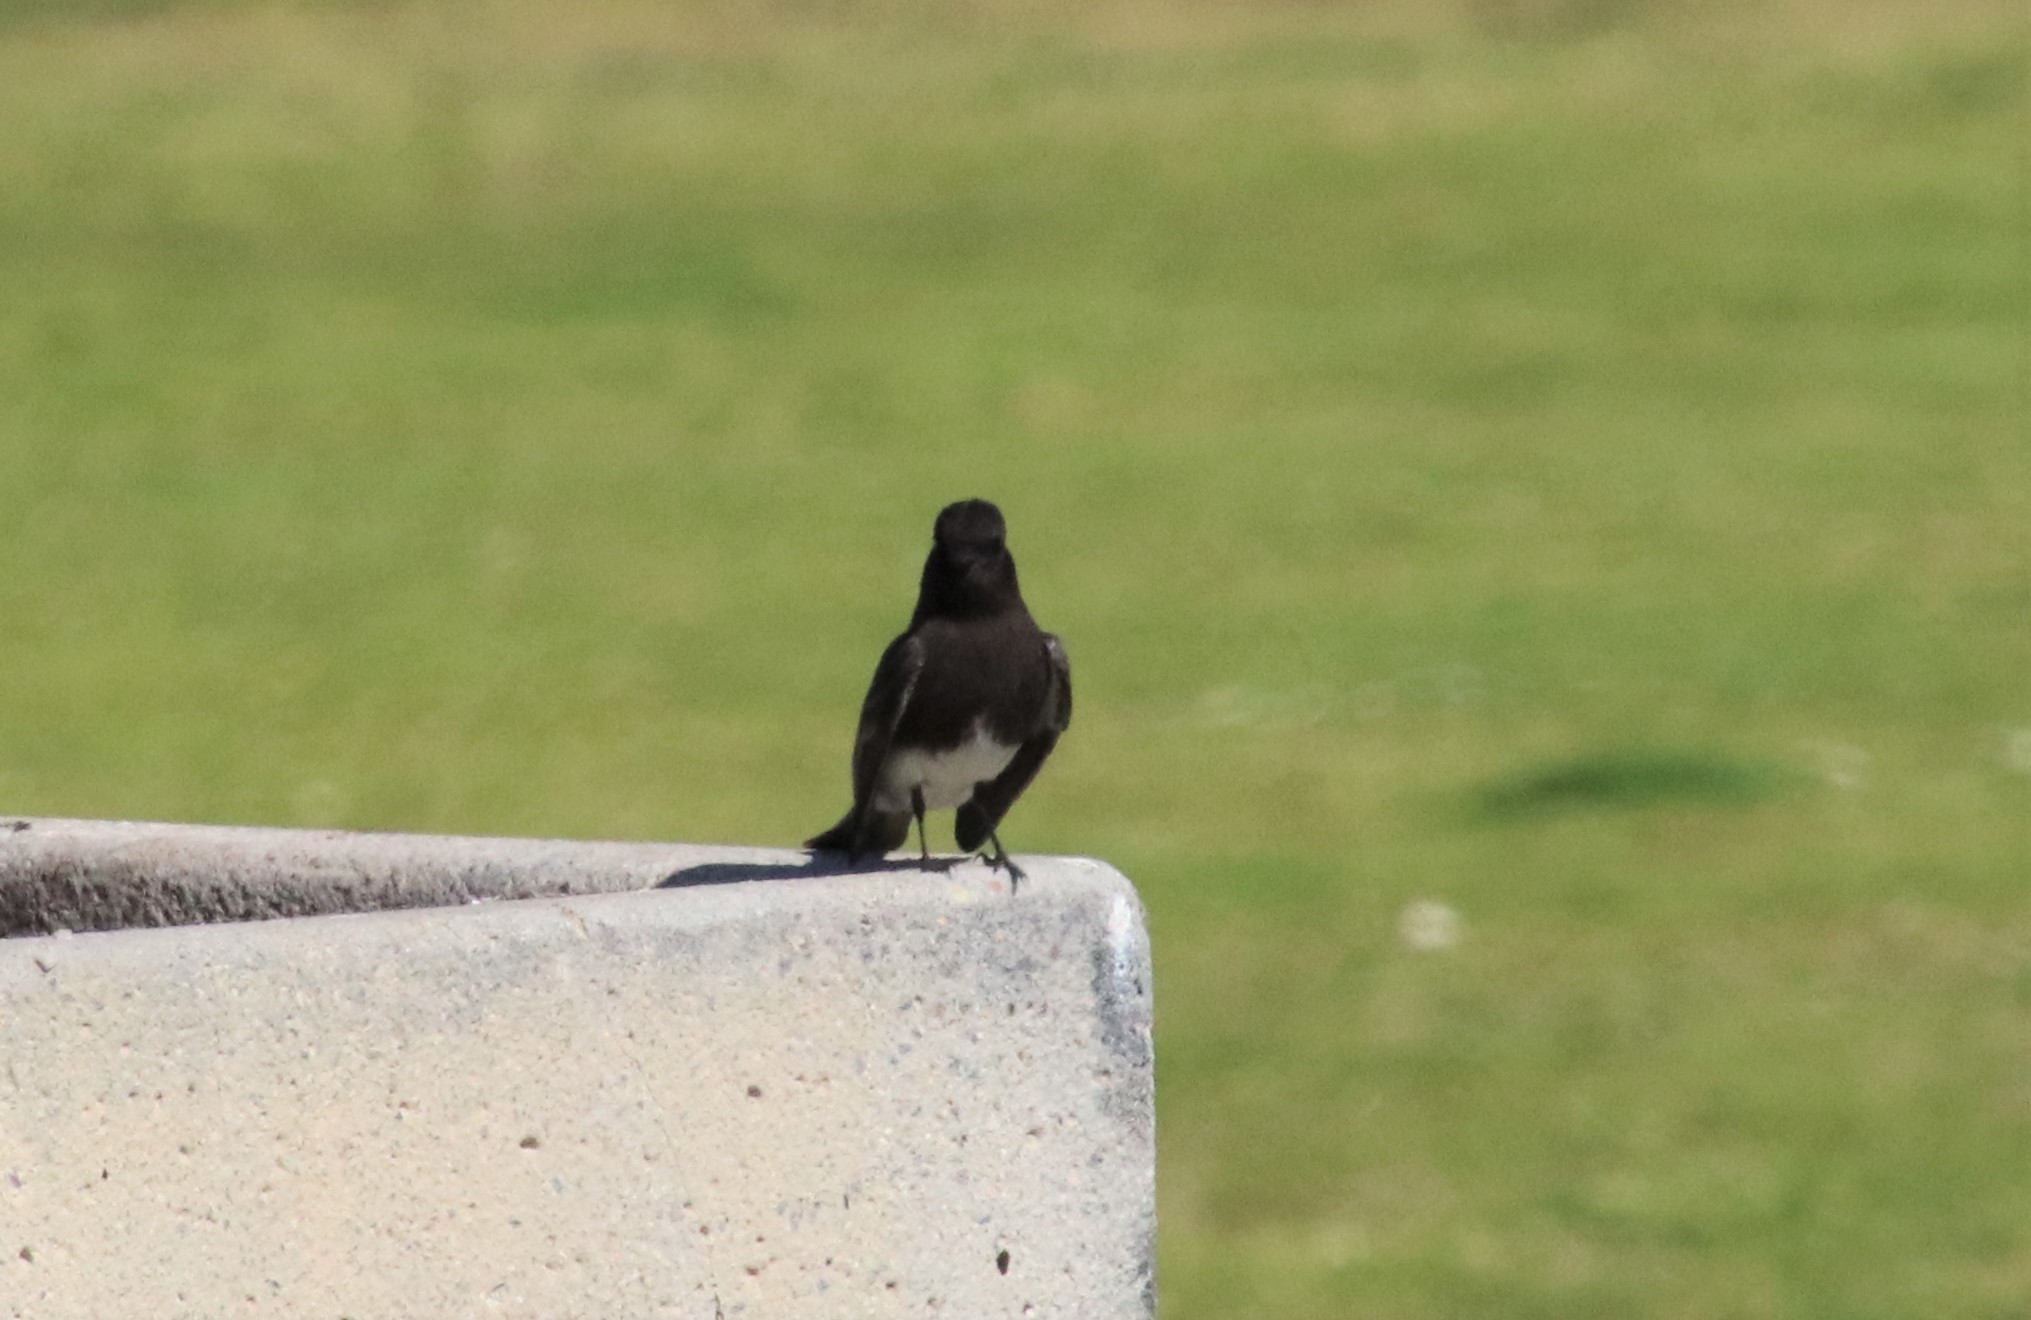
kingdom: Animalia
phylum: Chordata
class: Aves
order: Passeriformes
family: Tyrannidae
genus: Sayornis
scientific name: Sayornis nigricans
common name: Black phoebe
